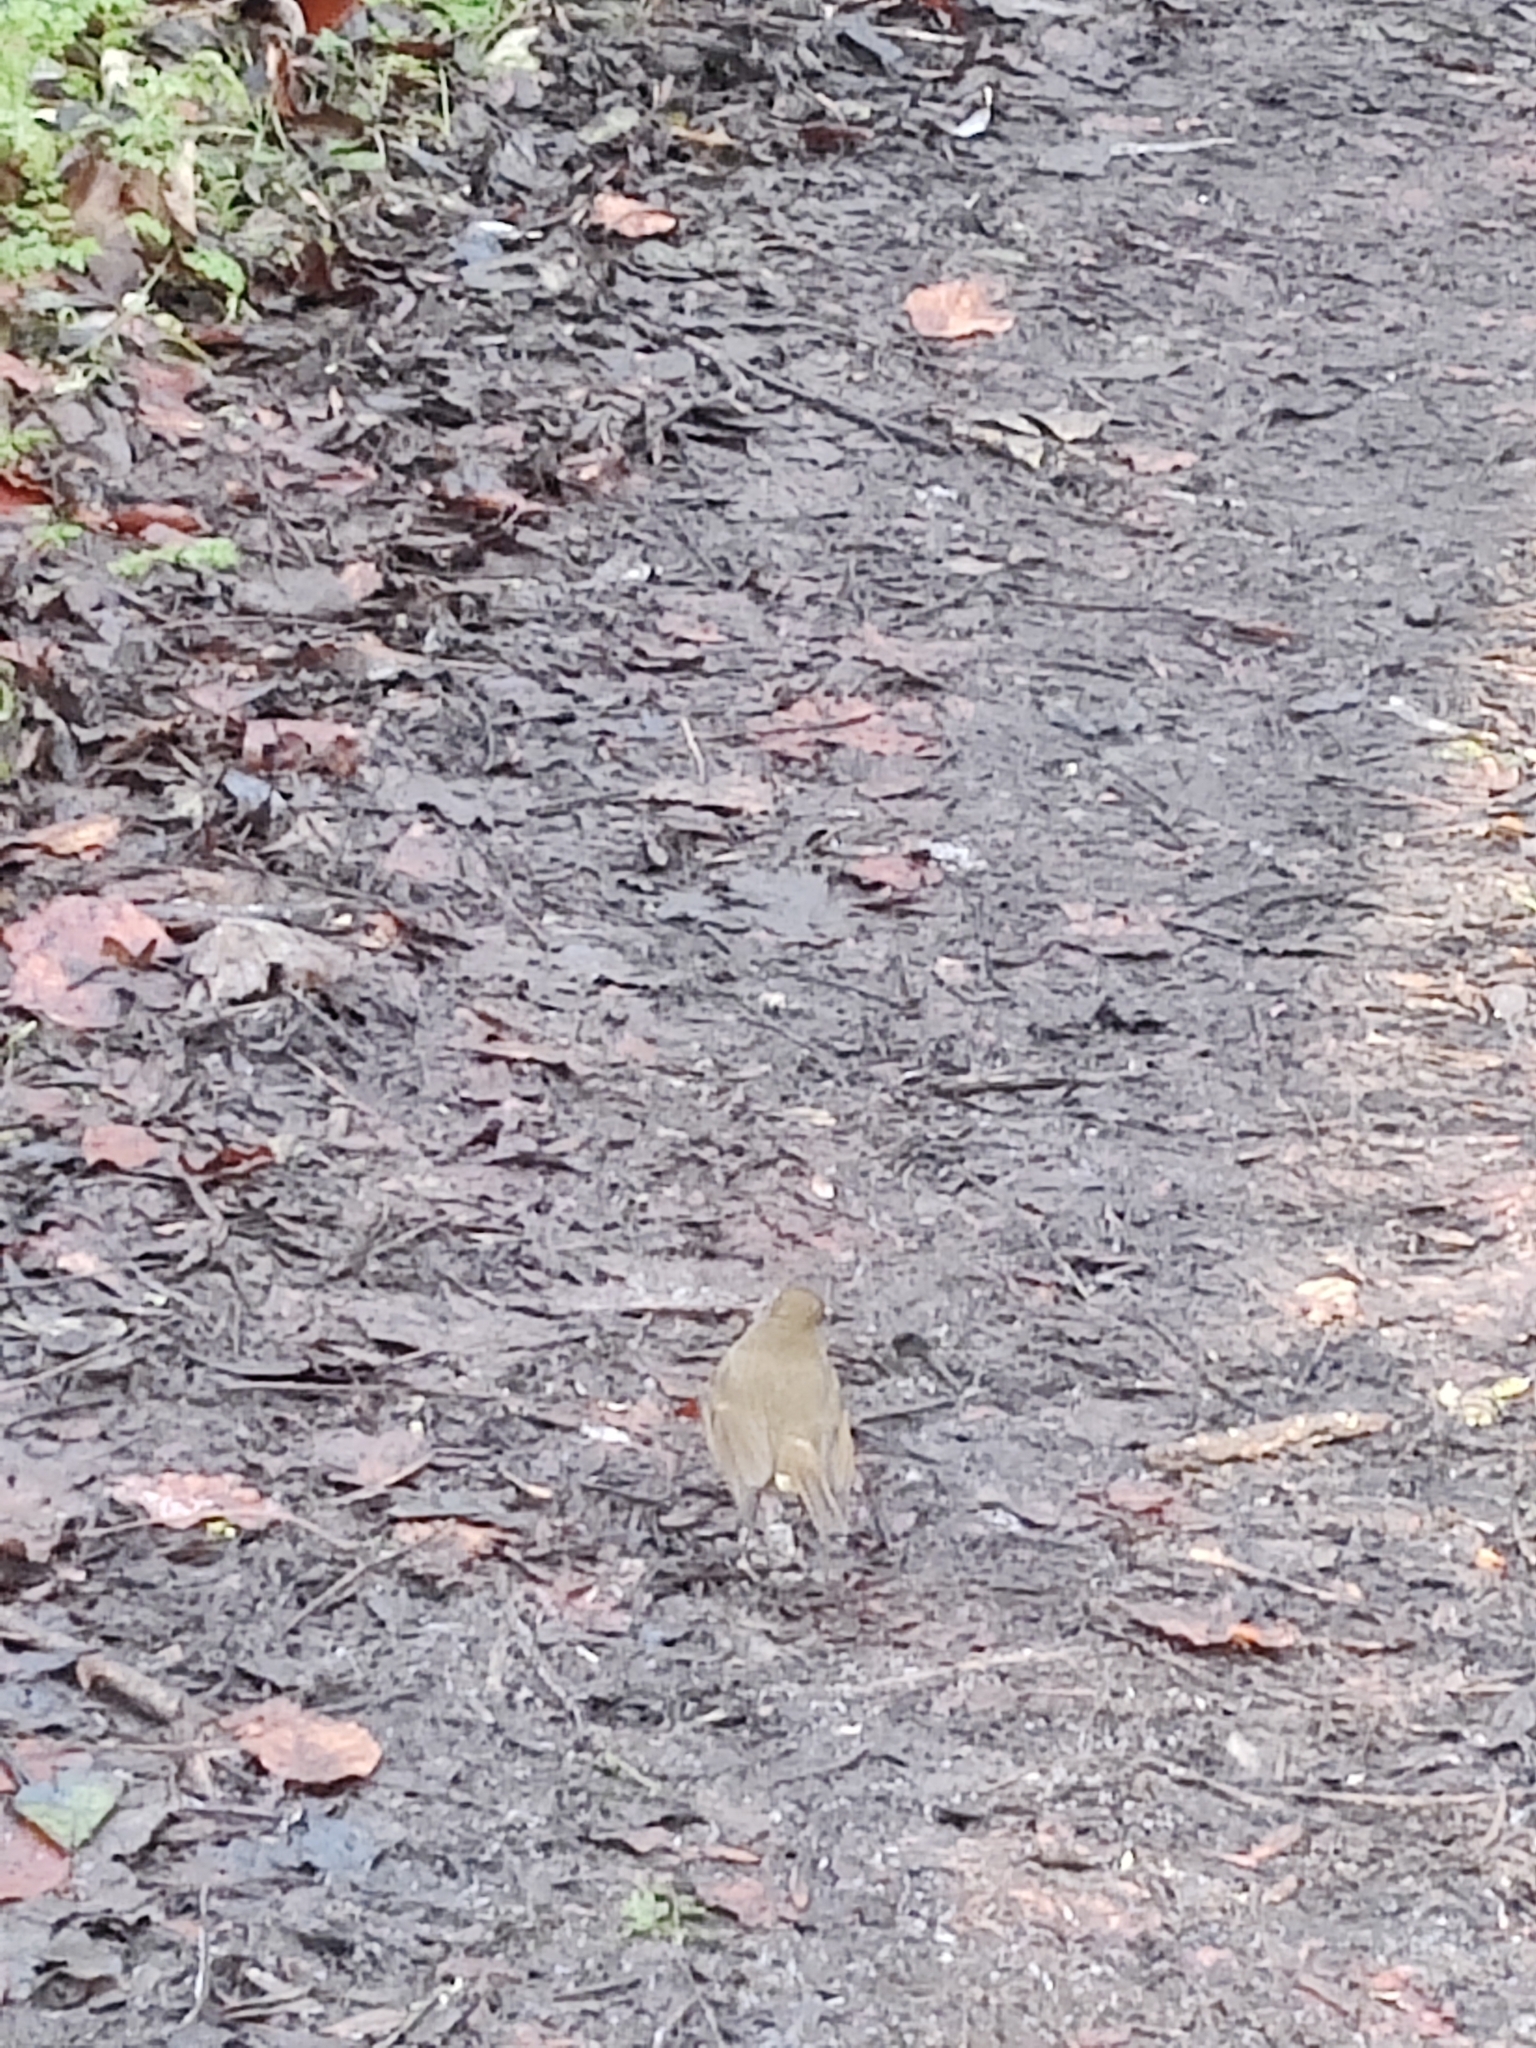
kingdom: Animalia
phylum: Chordata
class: Aves
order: Passeriformes
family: Muscicapidae
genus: Erithacus
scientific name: Erithacus rubecula
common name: European robin
